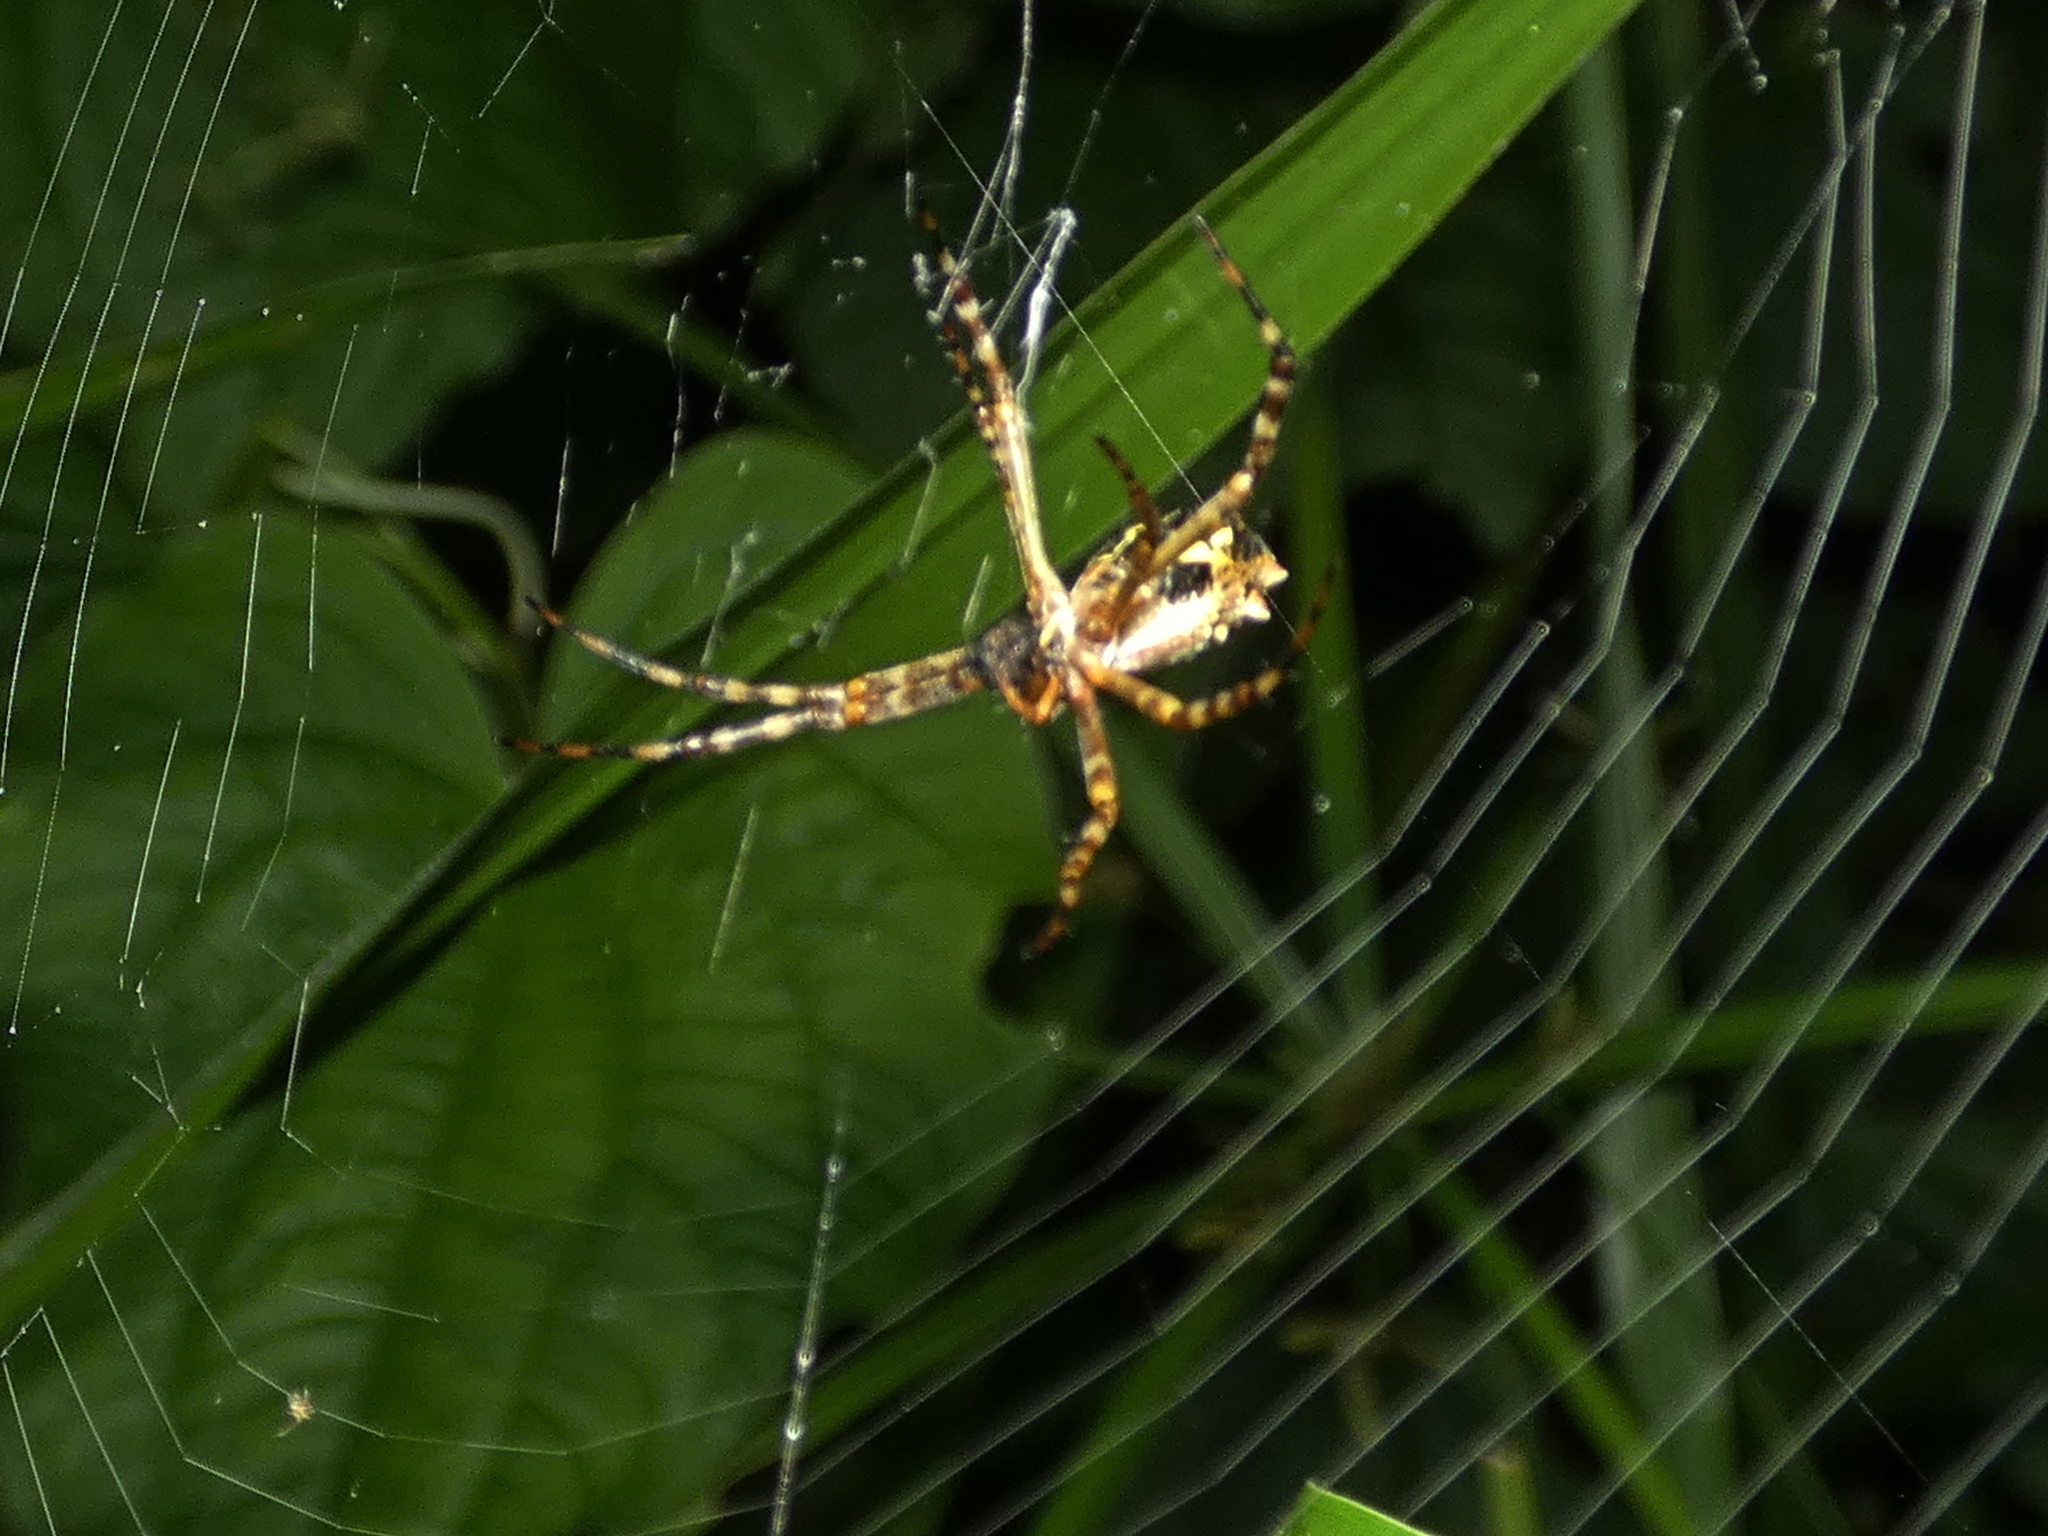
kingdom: Animalia
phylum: Arthropoda
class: Arachnida
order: Araneae
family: Araneidae
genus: Argiope
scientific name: Argiope argentata
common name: Orb weavers
